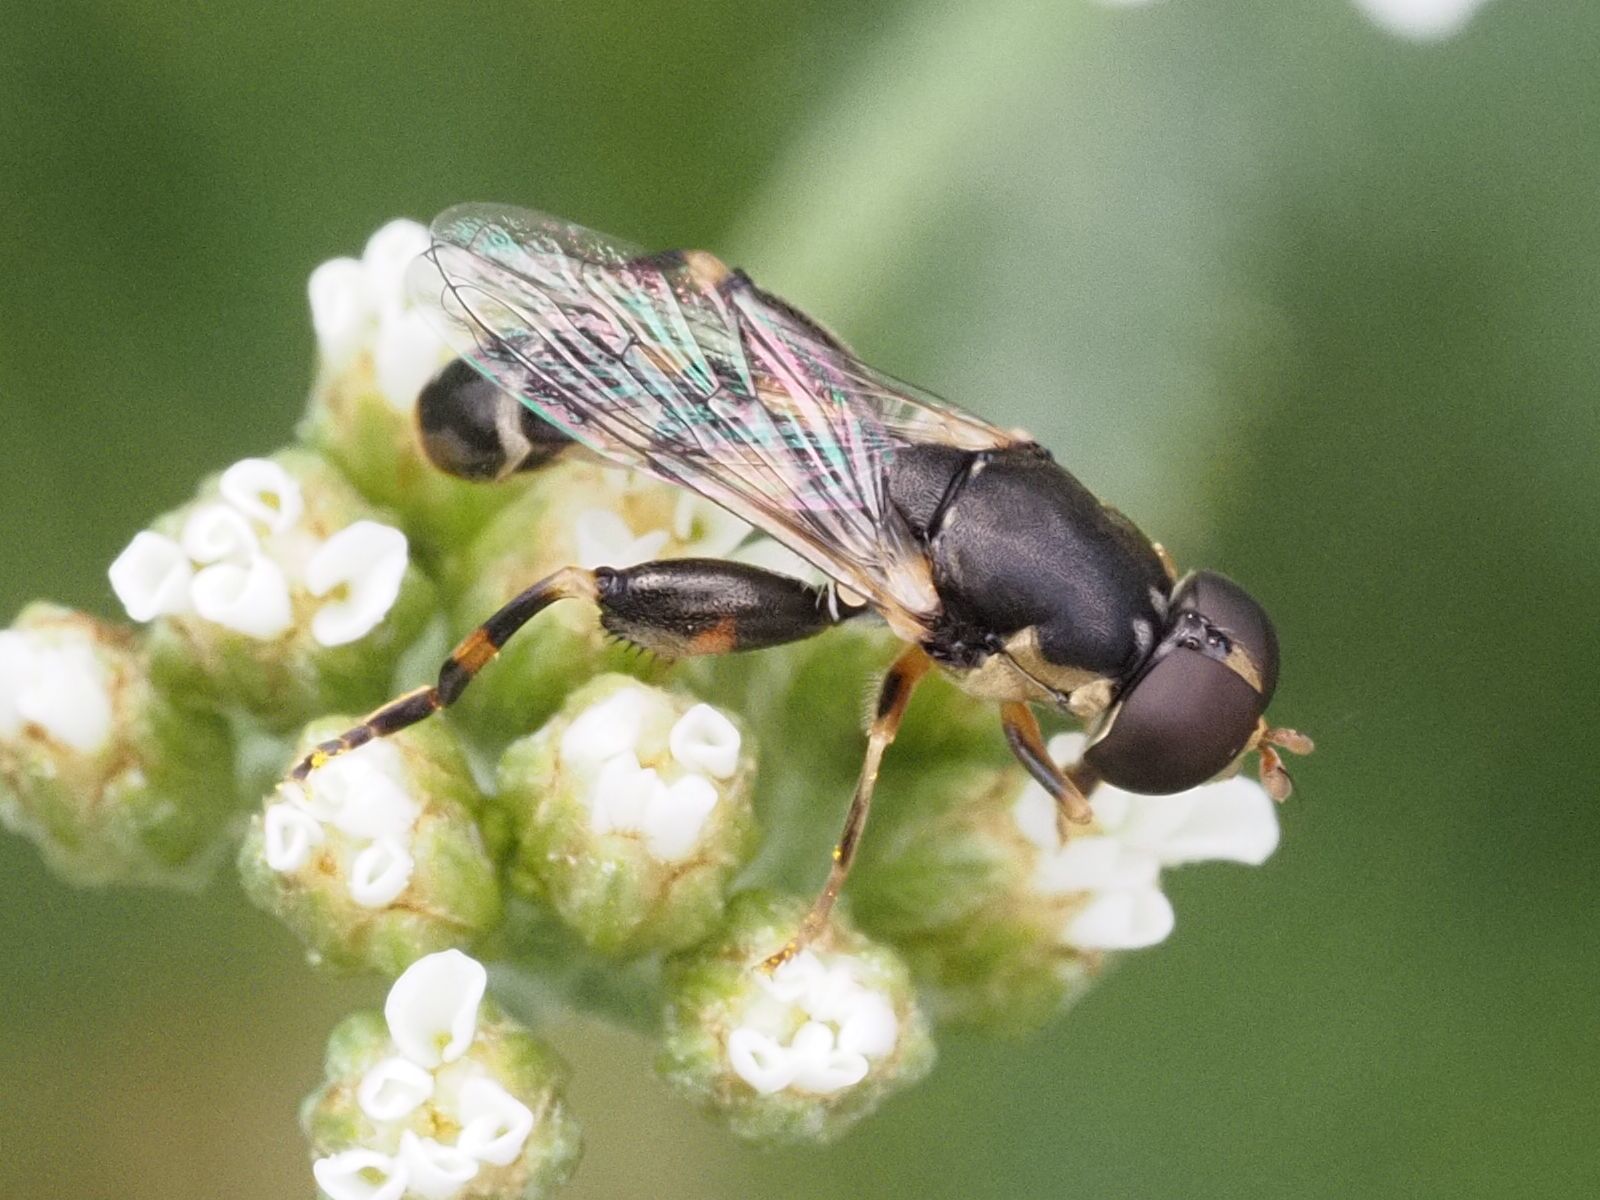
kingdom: Animalia
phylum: Arthropoda
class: Insecta
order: Diptera
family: Syrphidae
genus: Syritta
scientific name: Syritta pipiens
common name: Hover fly
